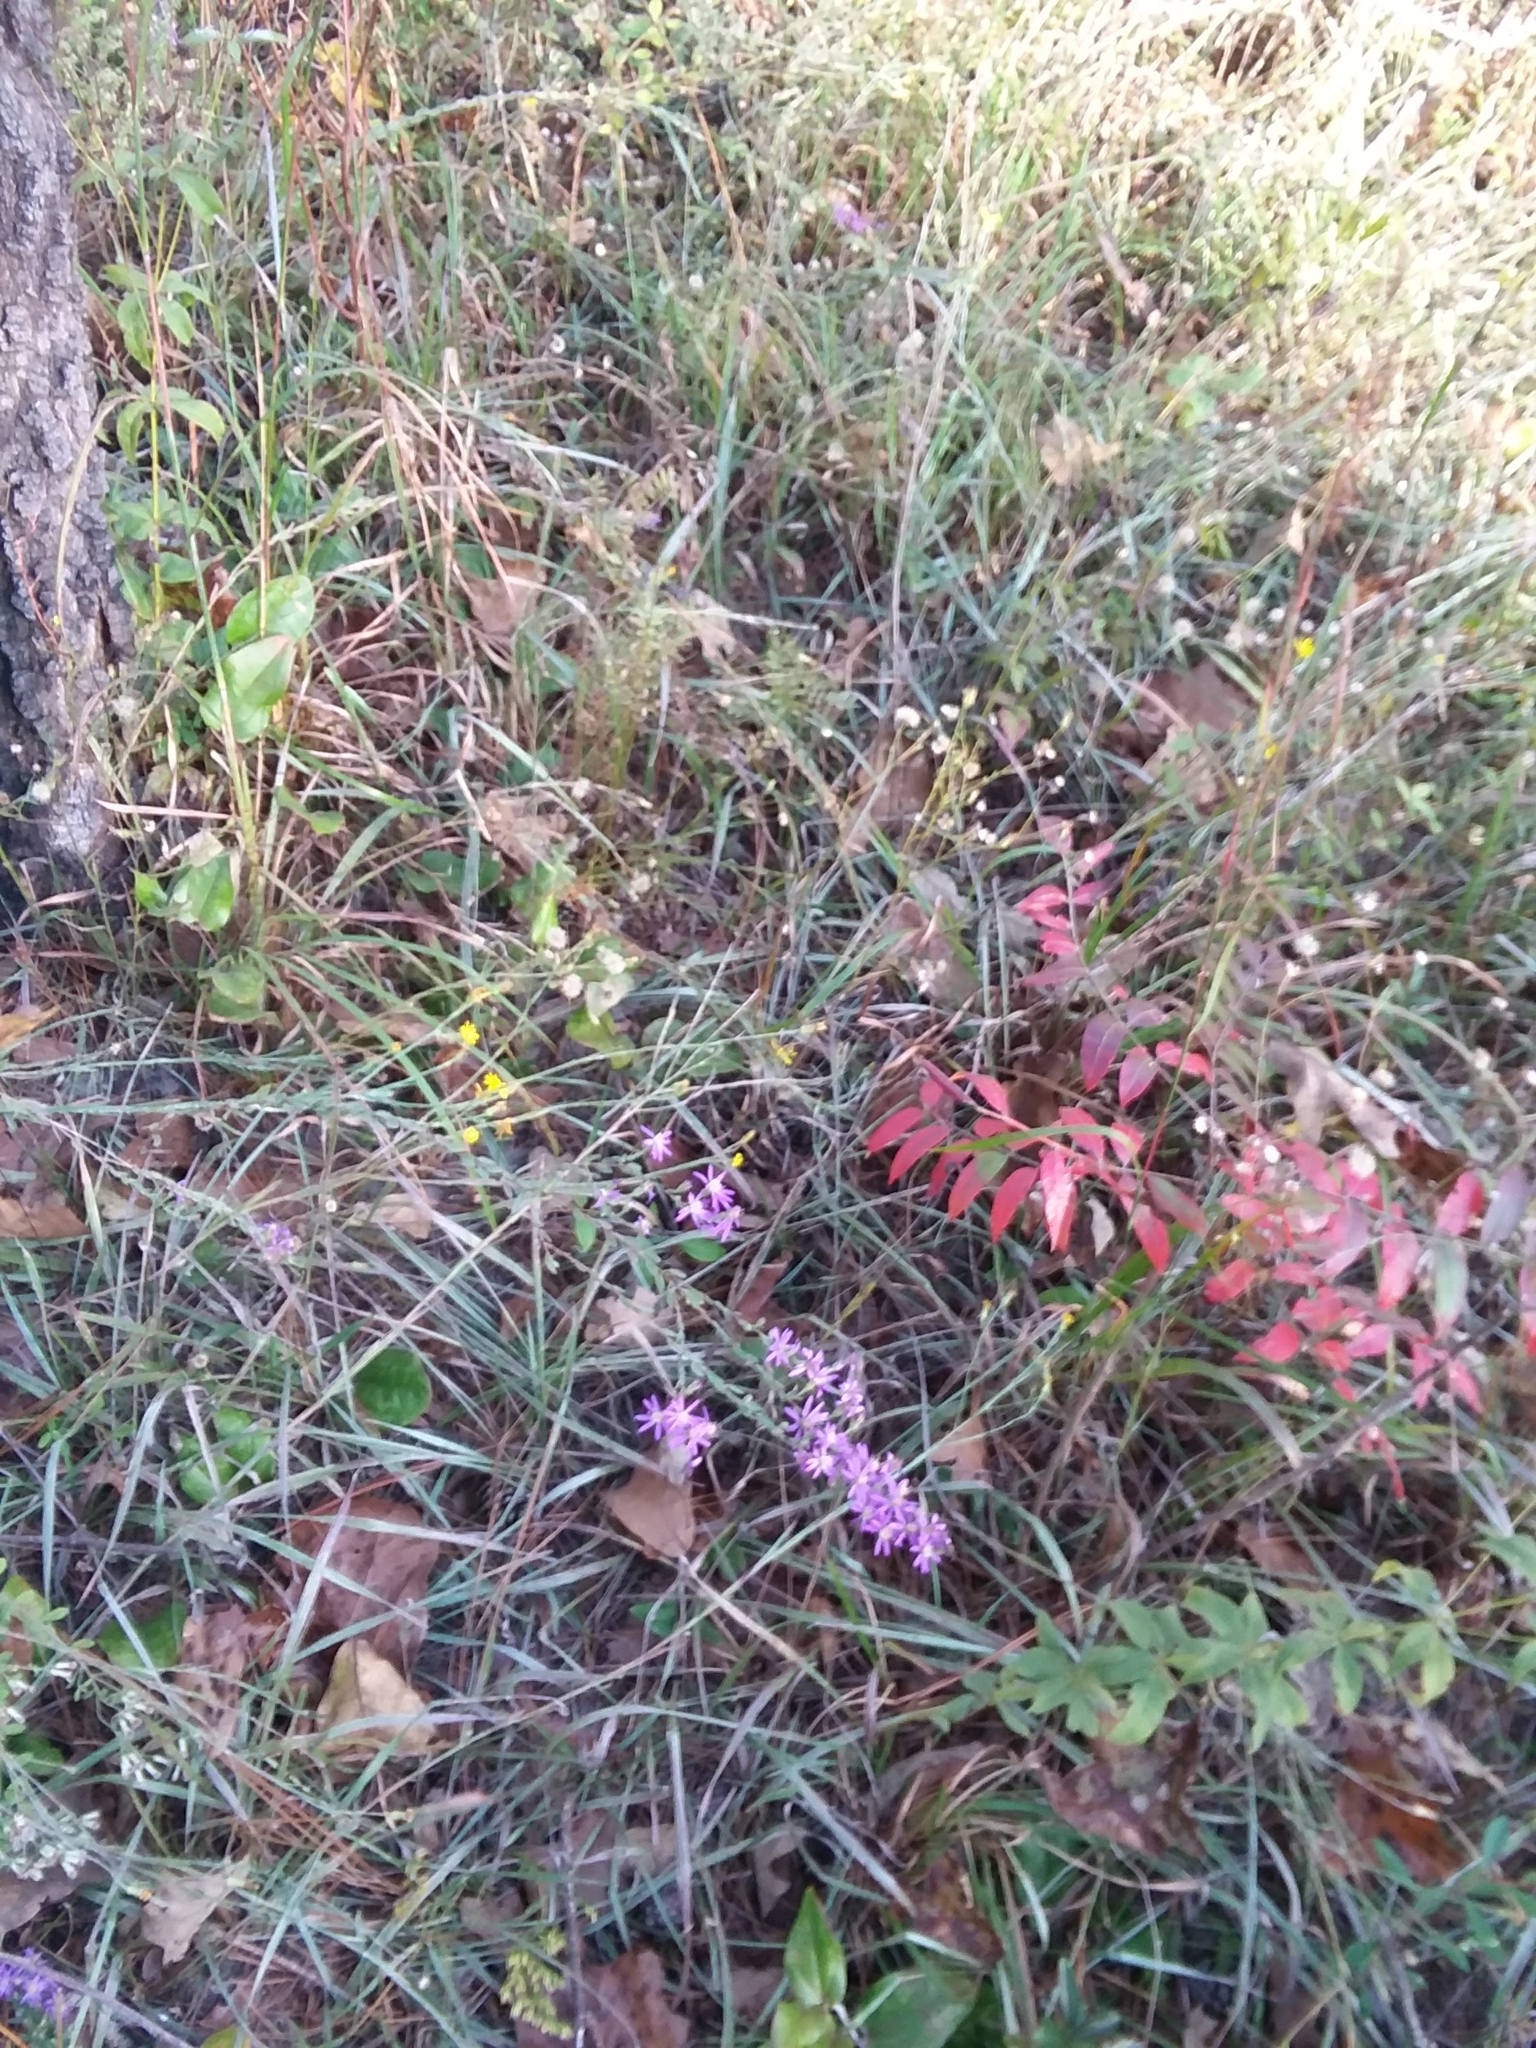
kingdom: Plantae
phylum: Tracheophyta
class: Magnoliopsida
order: Asterales
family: Asteraceae
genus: Symphyotrichum
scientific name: Symphyotrichum concolor
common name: Eastern silver aster
